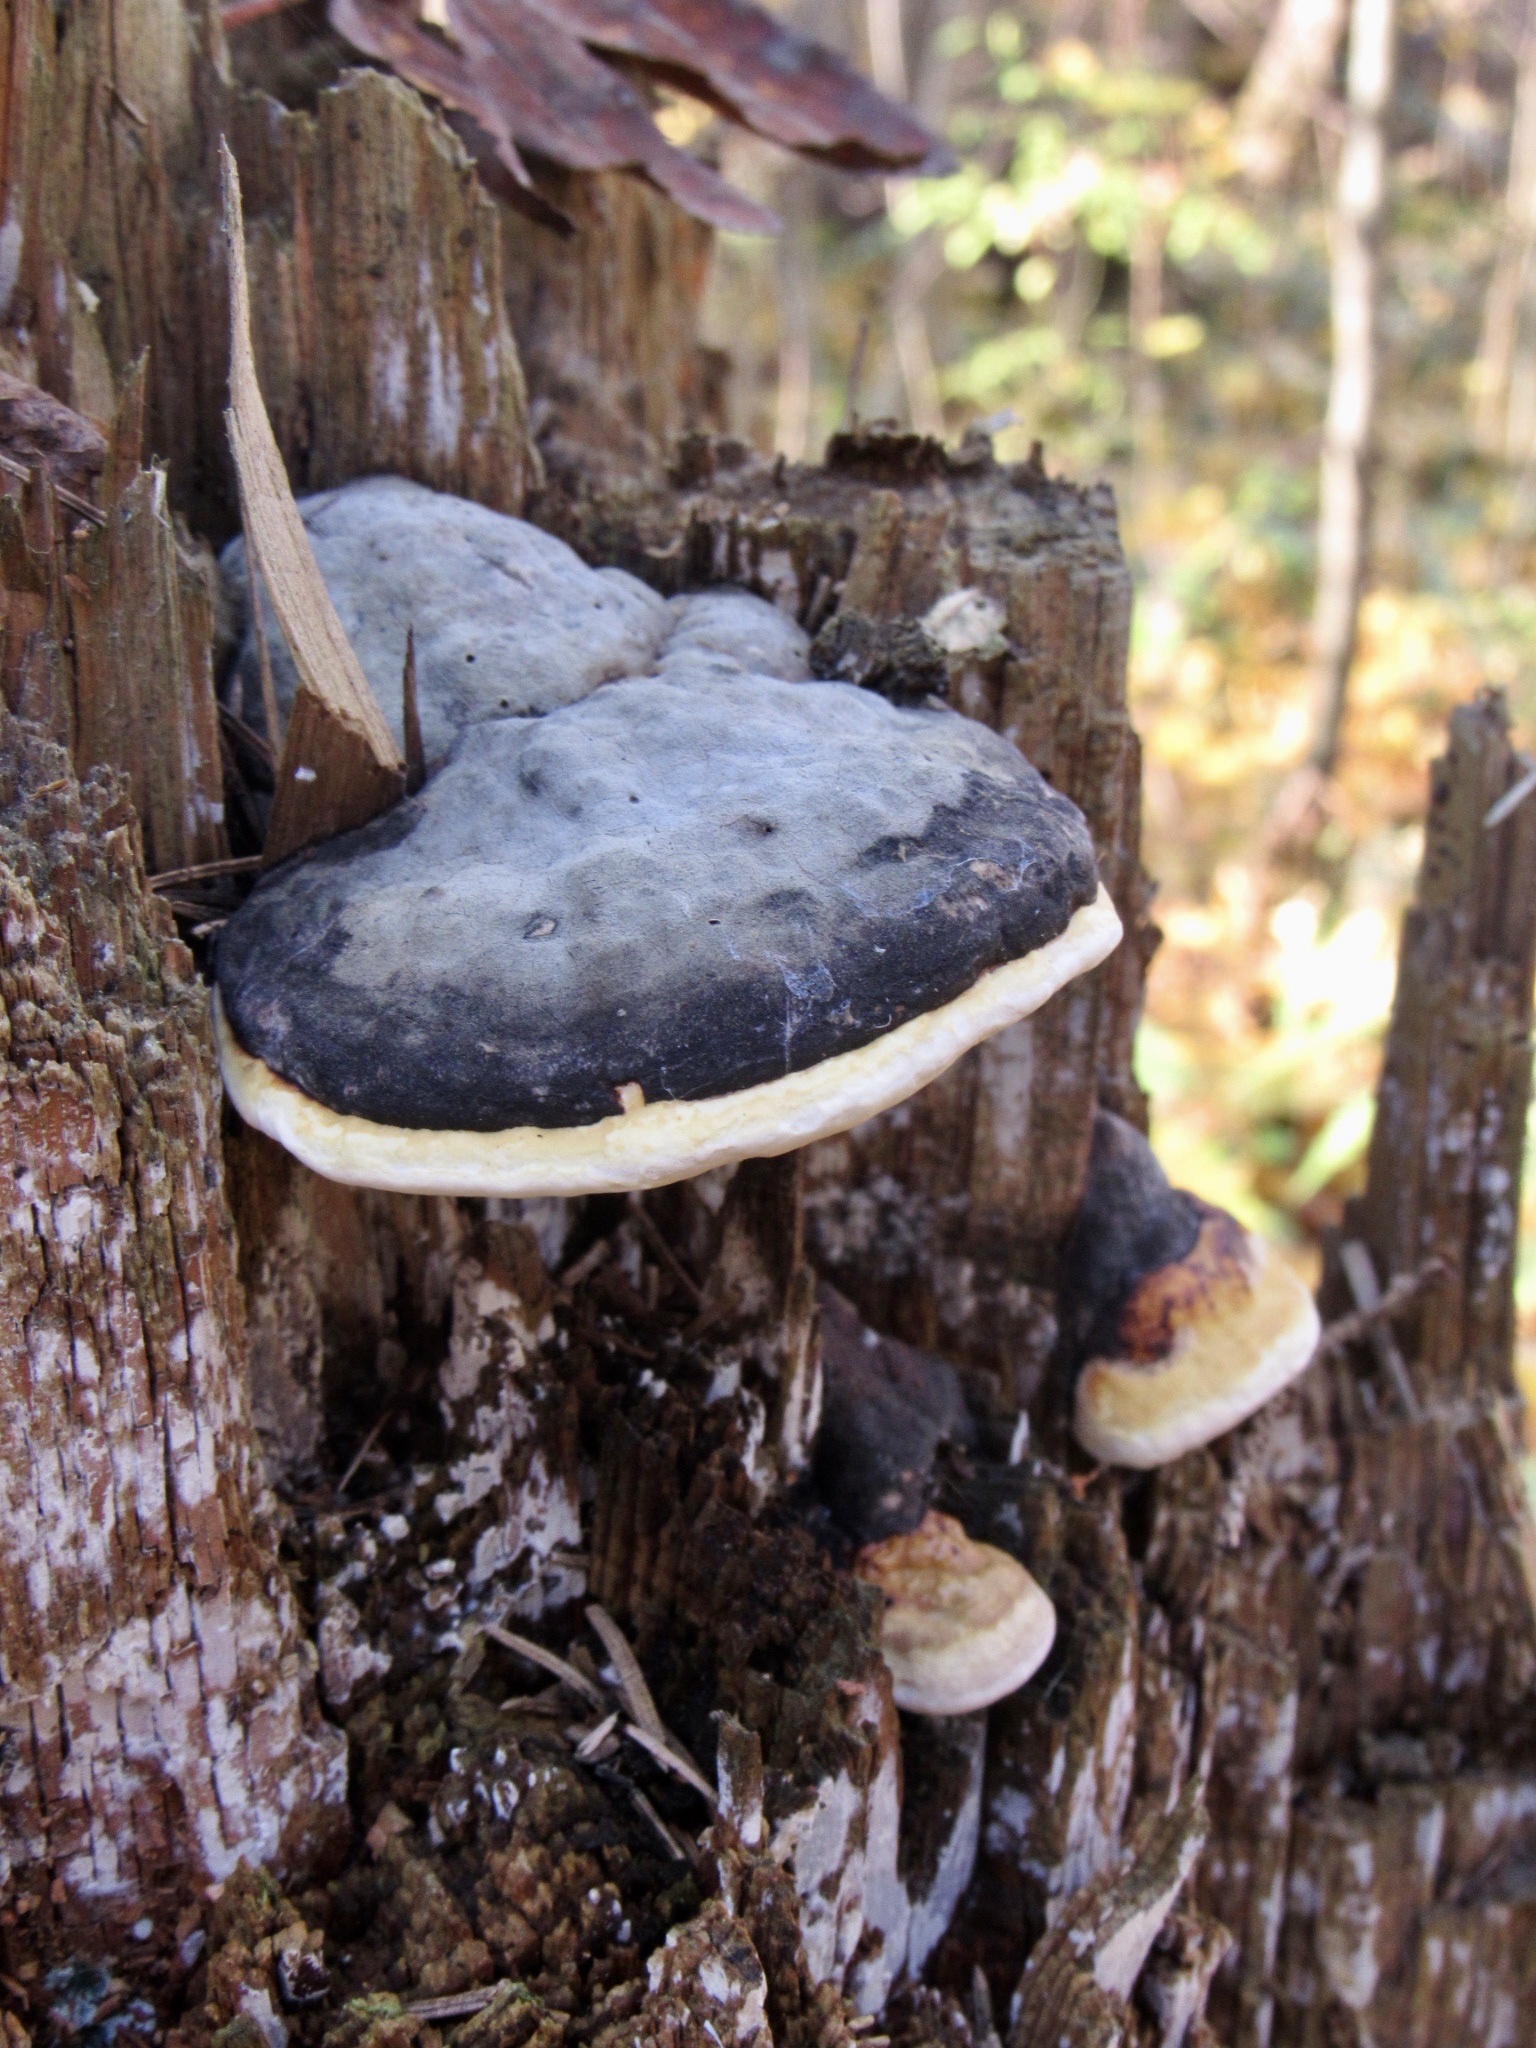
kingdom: Fungi
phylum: Basidiomycota
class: Agaricomycetes
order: Polyporales
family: Fomitopsidaceae
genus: Fomitopsis
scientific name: Fomitopsis pinicola
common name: Red-belted bracket
